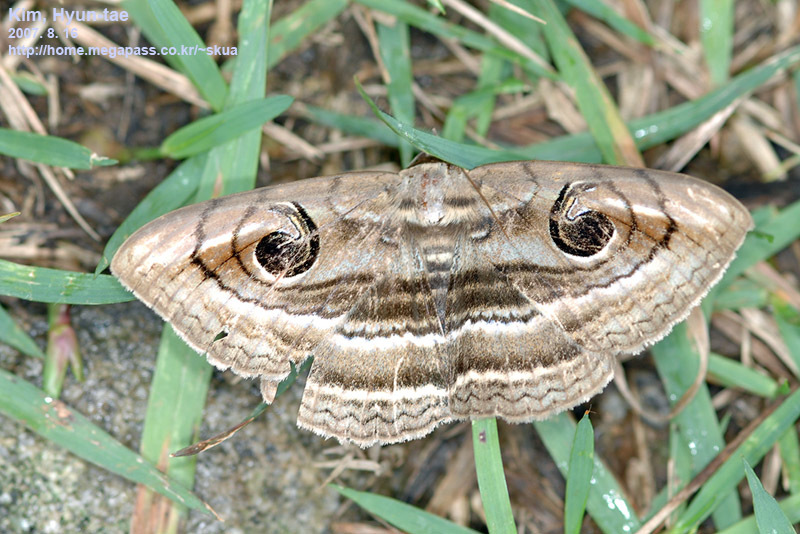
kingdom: Animalia
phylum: Arthropoda
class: Insecta
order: Lepidoptera
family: Erebidae
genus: Spirama
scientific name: Spirama retorta
